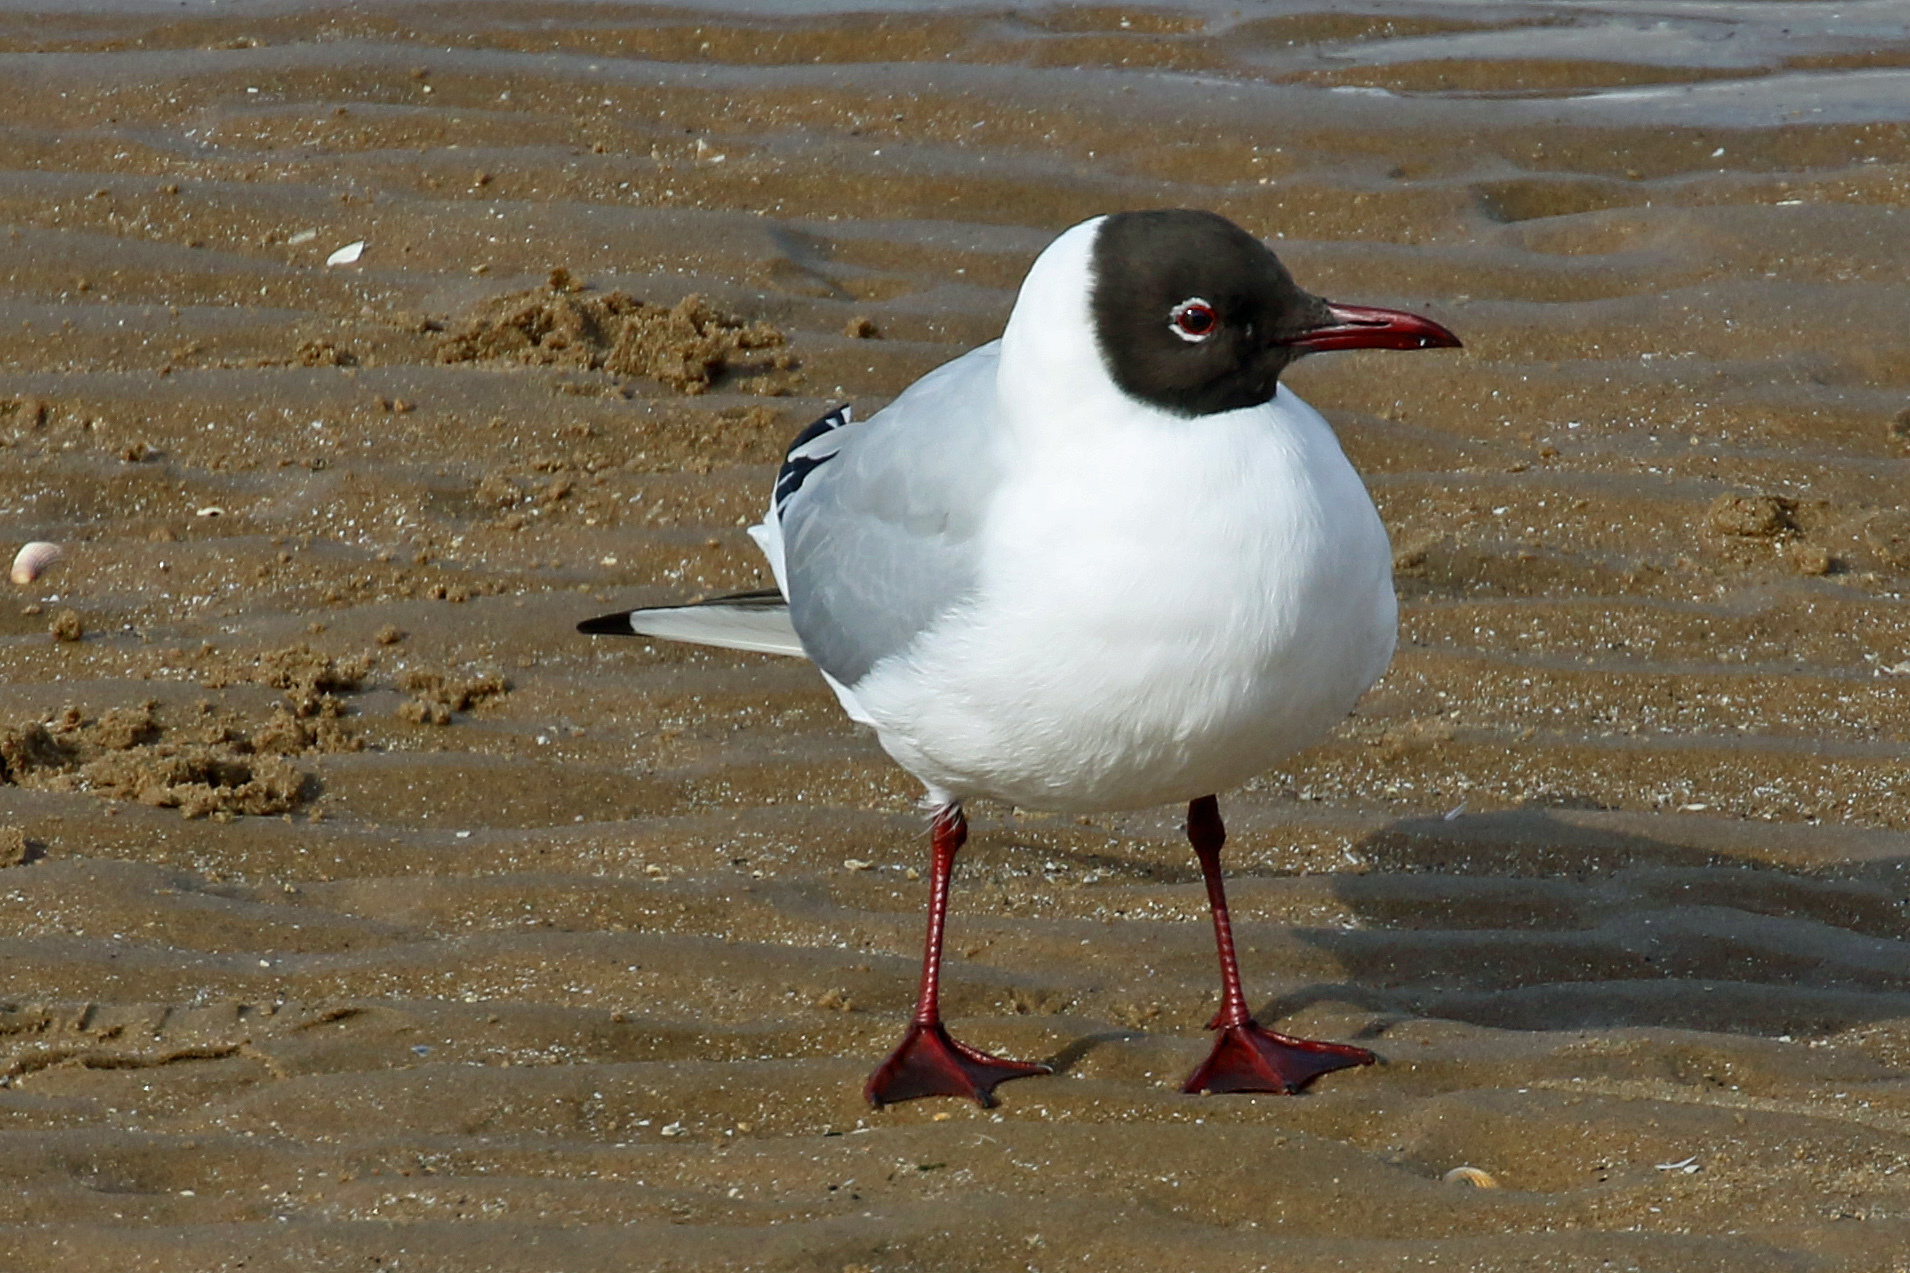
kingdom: Animalia
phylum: Chordata
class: Aves
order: Charadriiformes
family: Laridae
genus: Chroicocephalus
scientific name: Chroicocephalus ridibundus
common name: Black-headed gull
